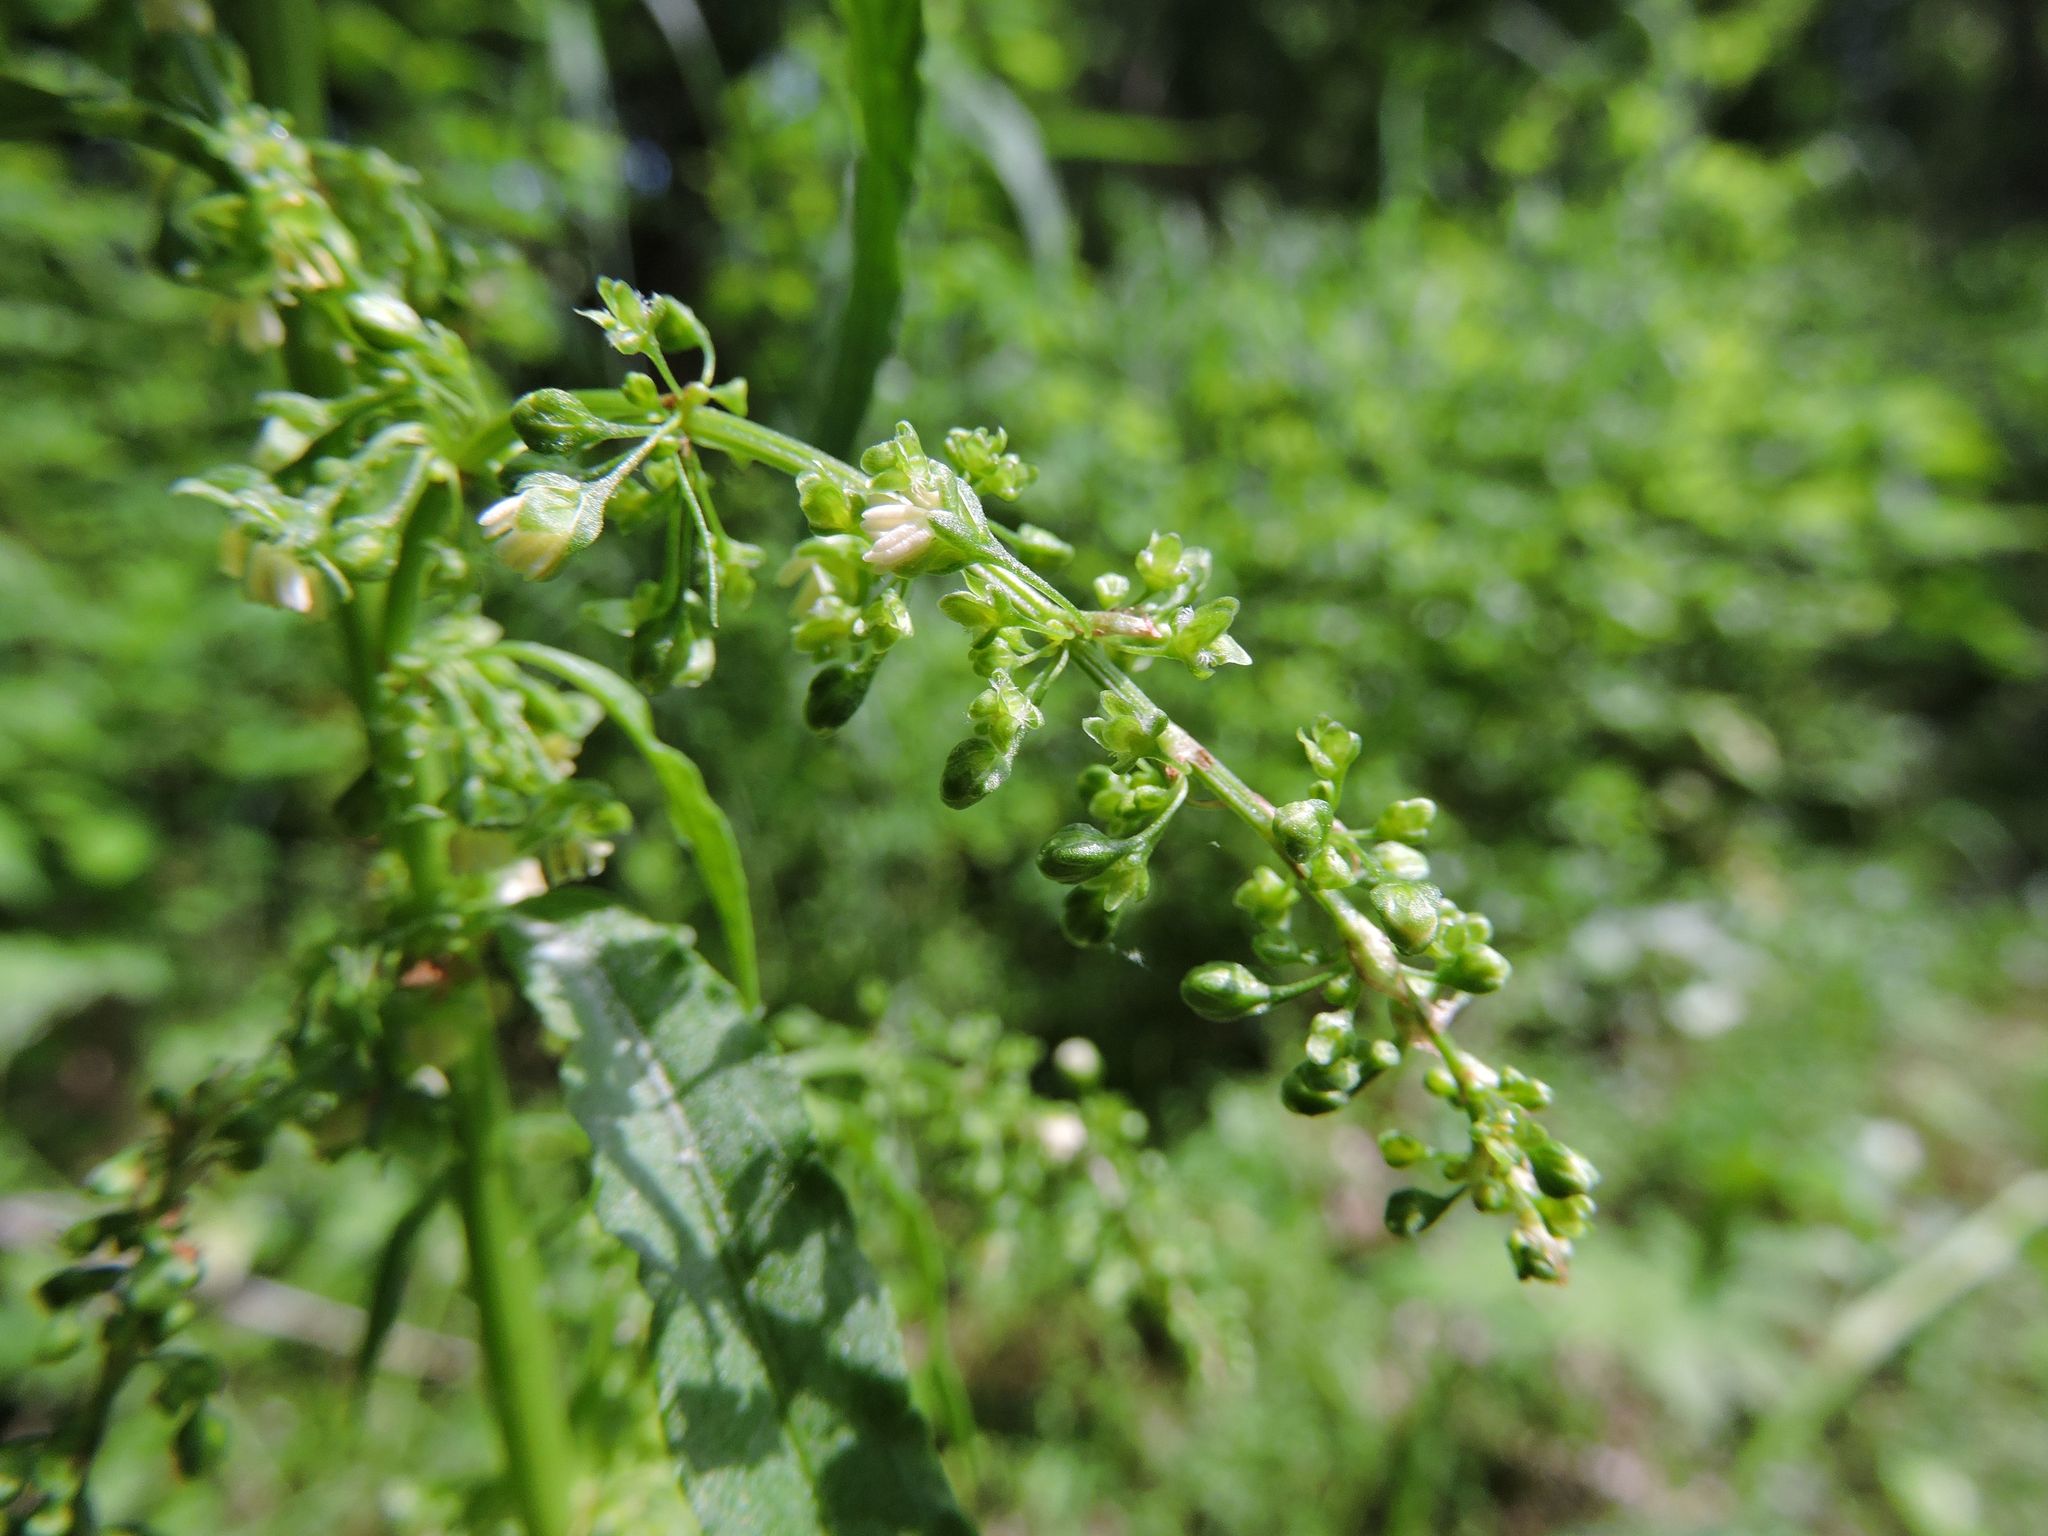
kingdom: Plantae
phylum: Tracheophyta
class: Magnoliopsida
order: Caryophyllales
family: Polygonaceae
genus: Rumex
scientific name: Rumex crispus
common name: Curled dock
